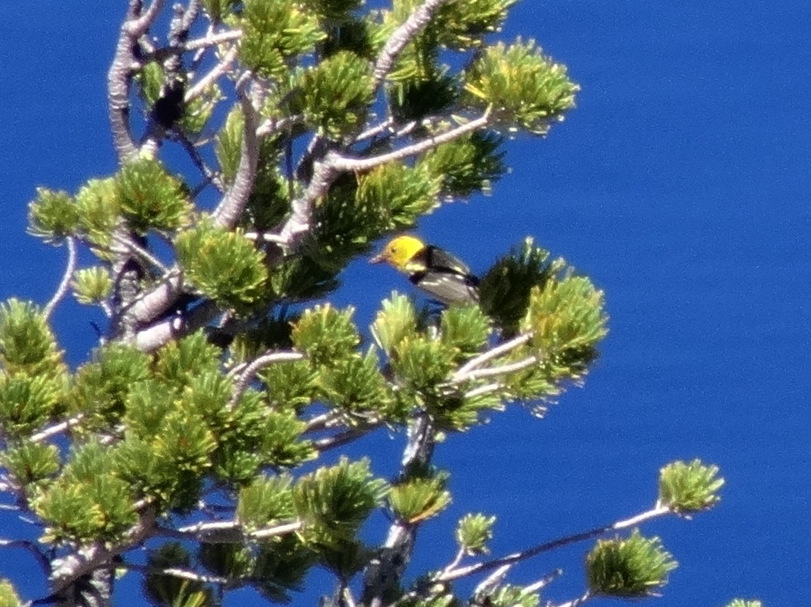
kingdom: Animalia
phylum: Chordata
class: Aves
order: Passeriformes
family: Cardinalidae
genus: Piranga
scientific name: Piranga ludoviciana
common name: Western tanager
